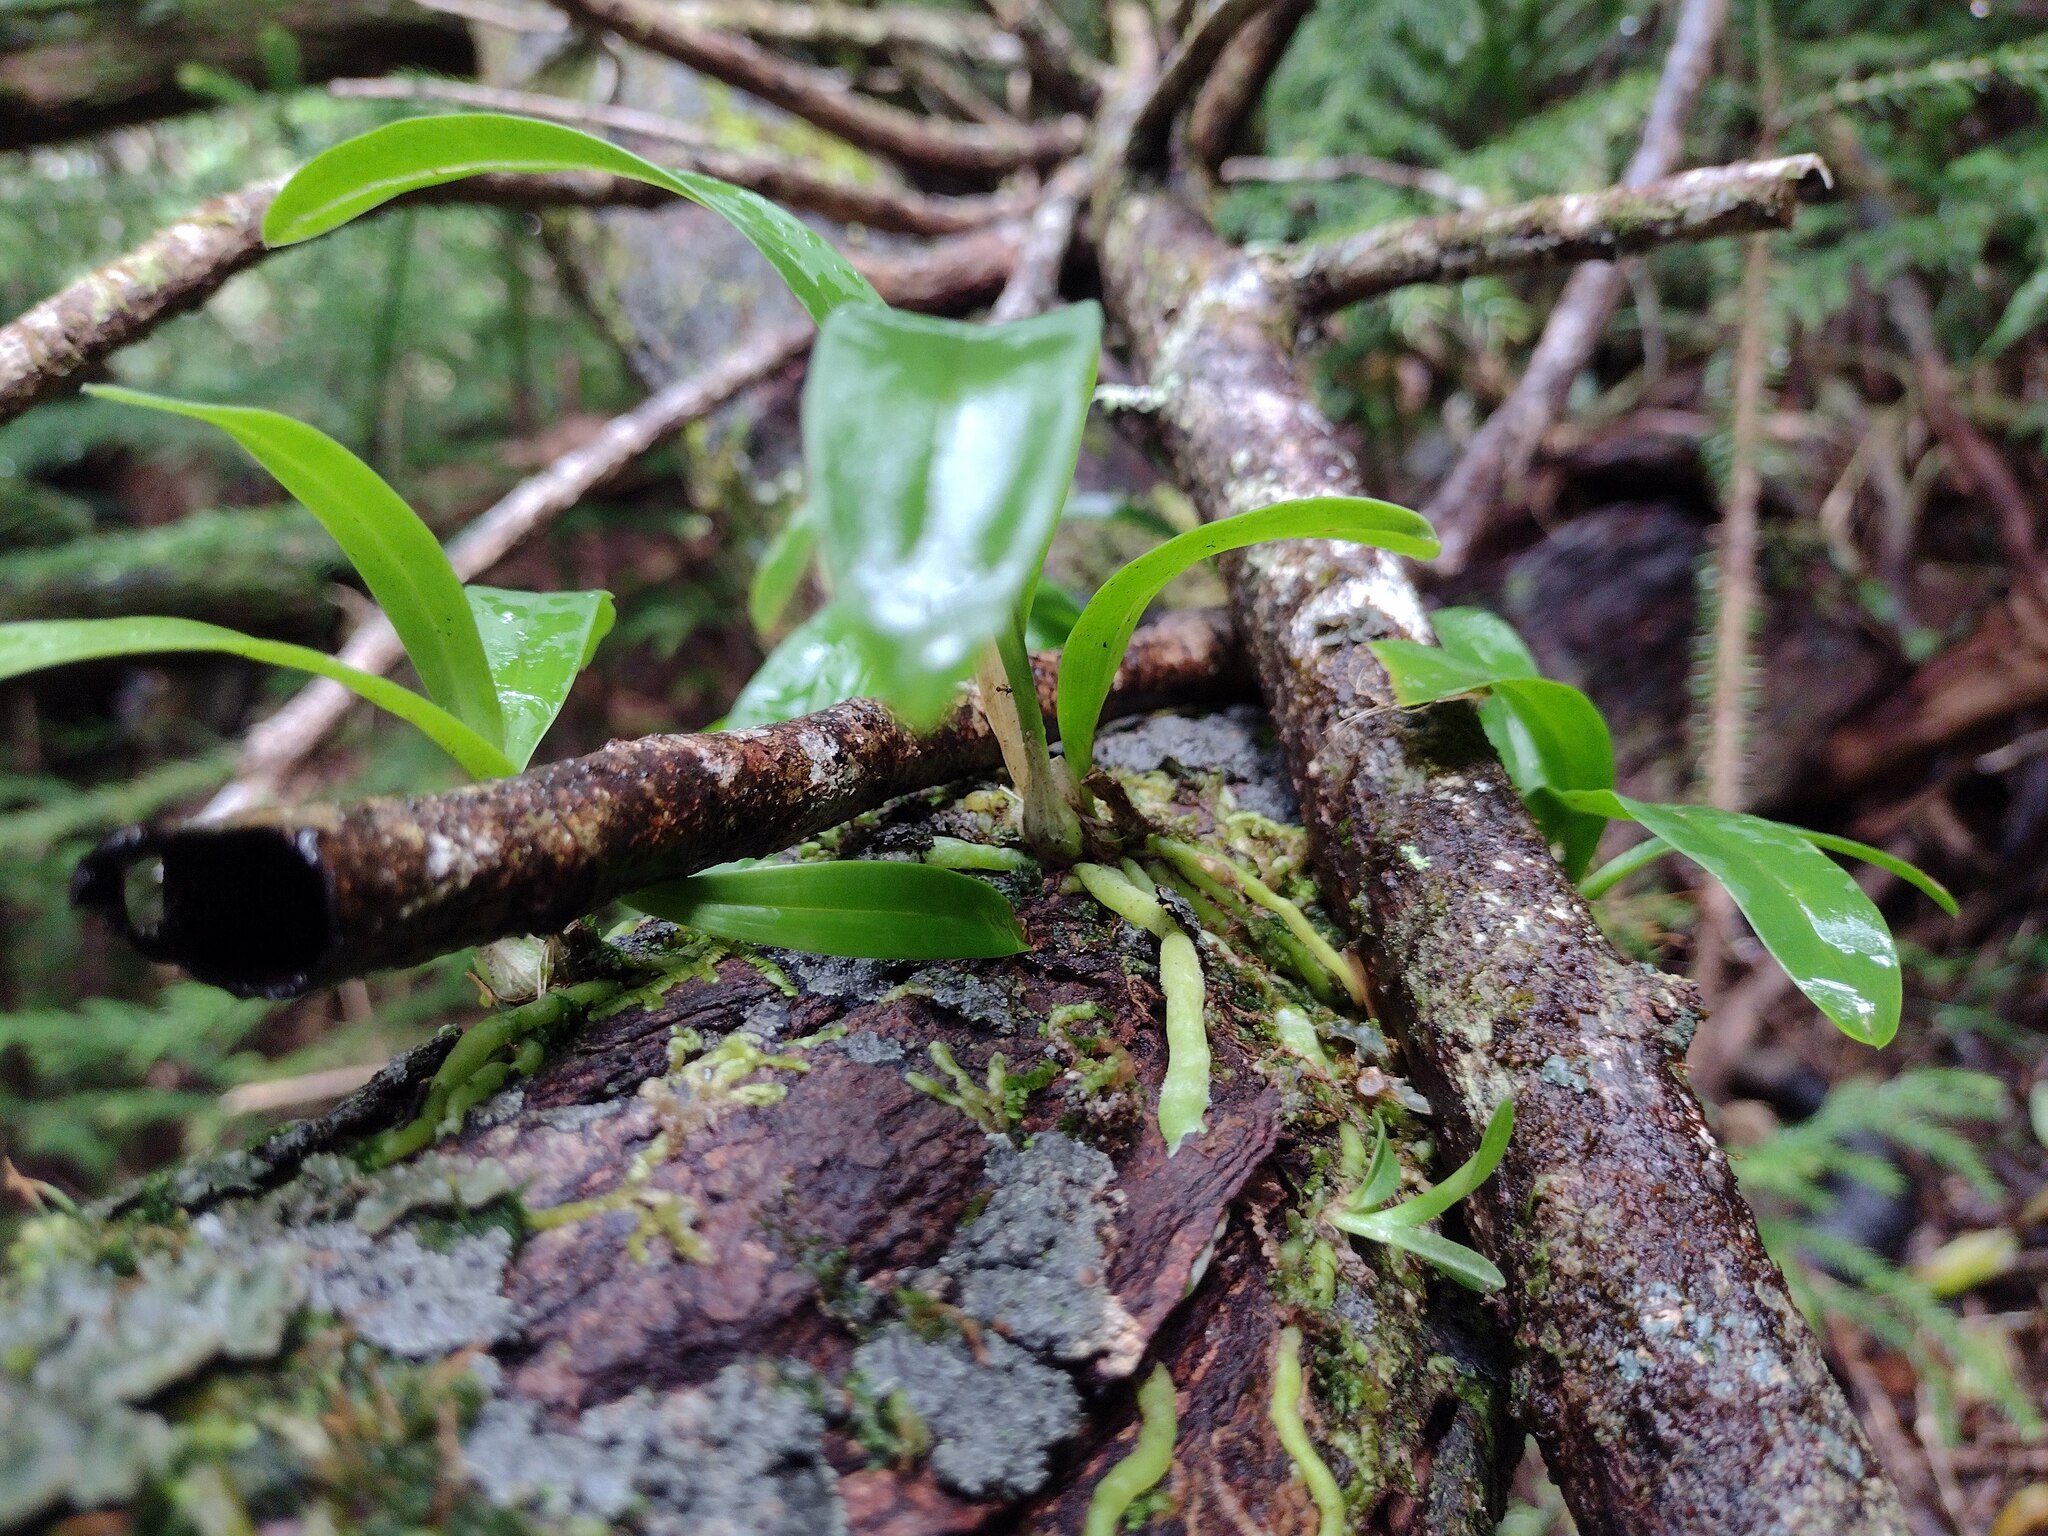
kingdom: Plantae
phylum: Tracheophyta
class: Liliopsida
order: Asparagales
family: Orchidaceae
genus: Polystachya
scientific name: Polystachya concreta
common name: Greater yellowspike orchid
